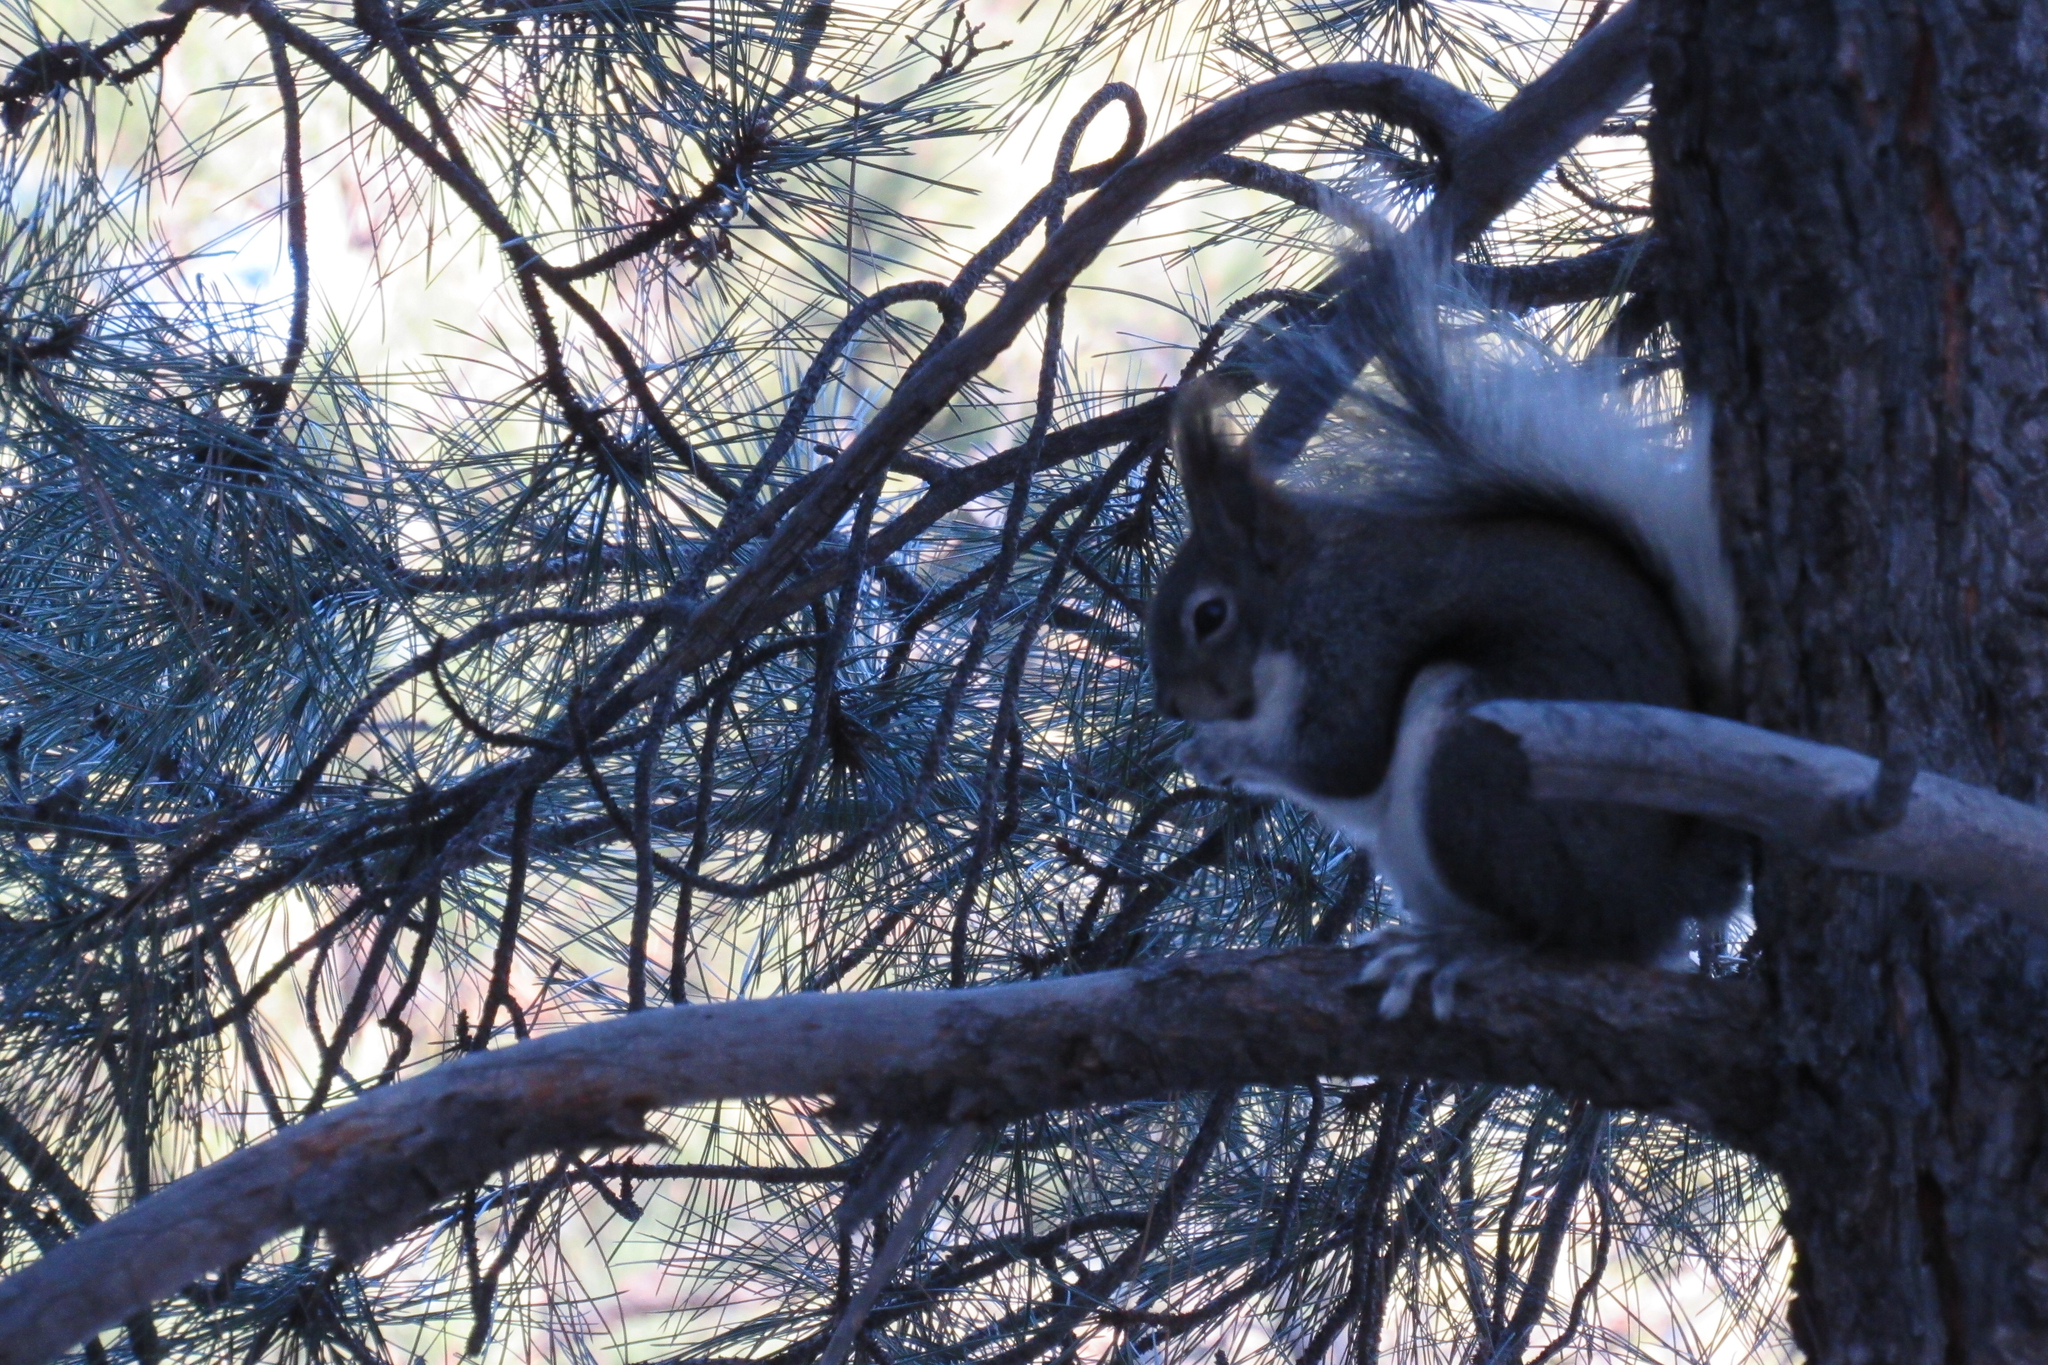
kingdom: Animalia
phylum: Chordata
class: Mammalia
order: Rodentia
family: Sciuridae
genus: Sciurus
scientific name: Sciurus aberti
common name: Abert's squirrel
